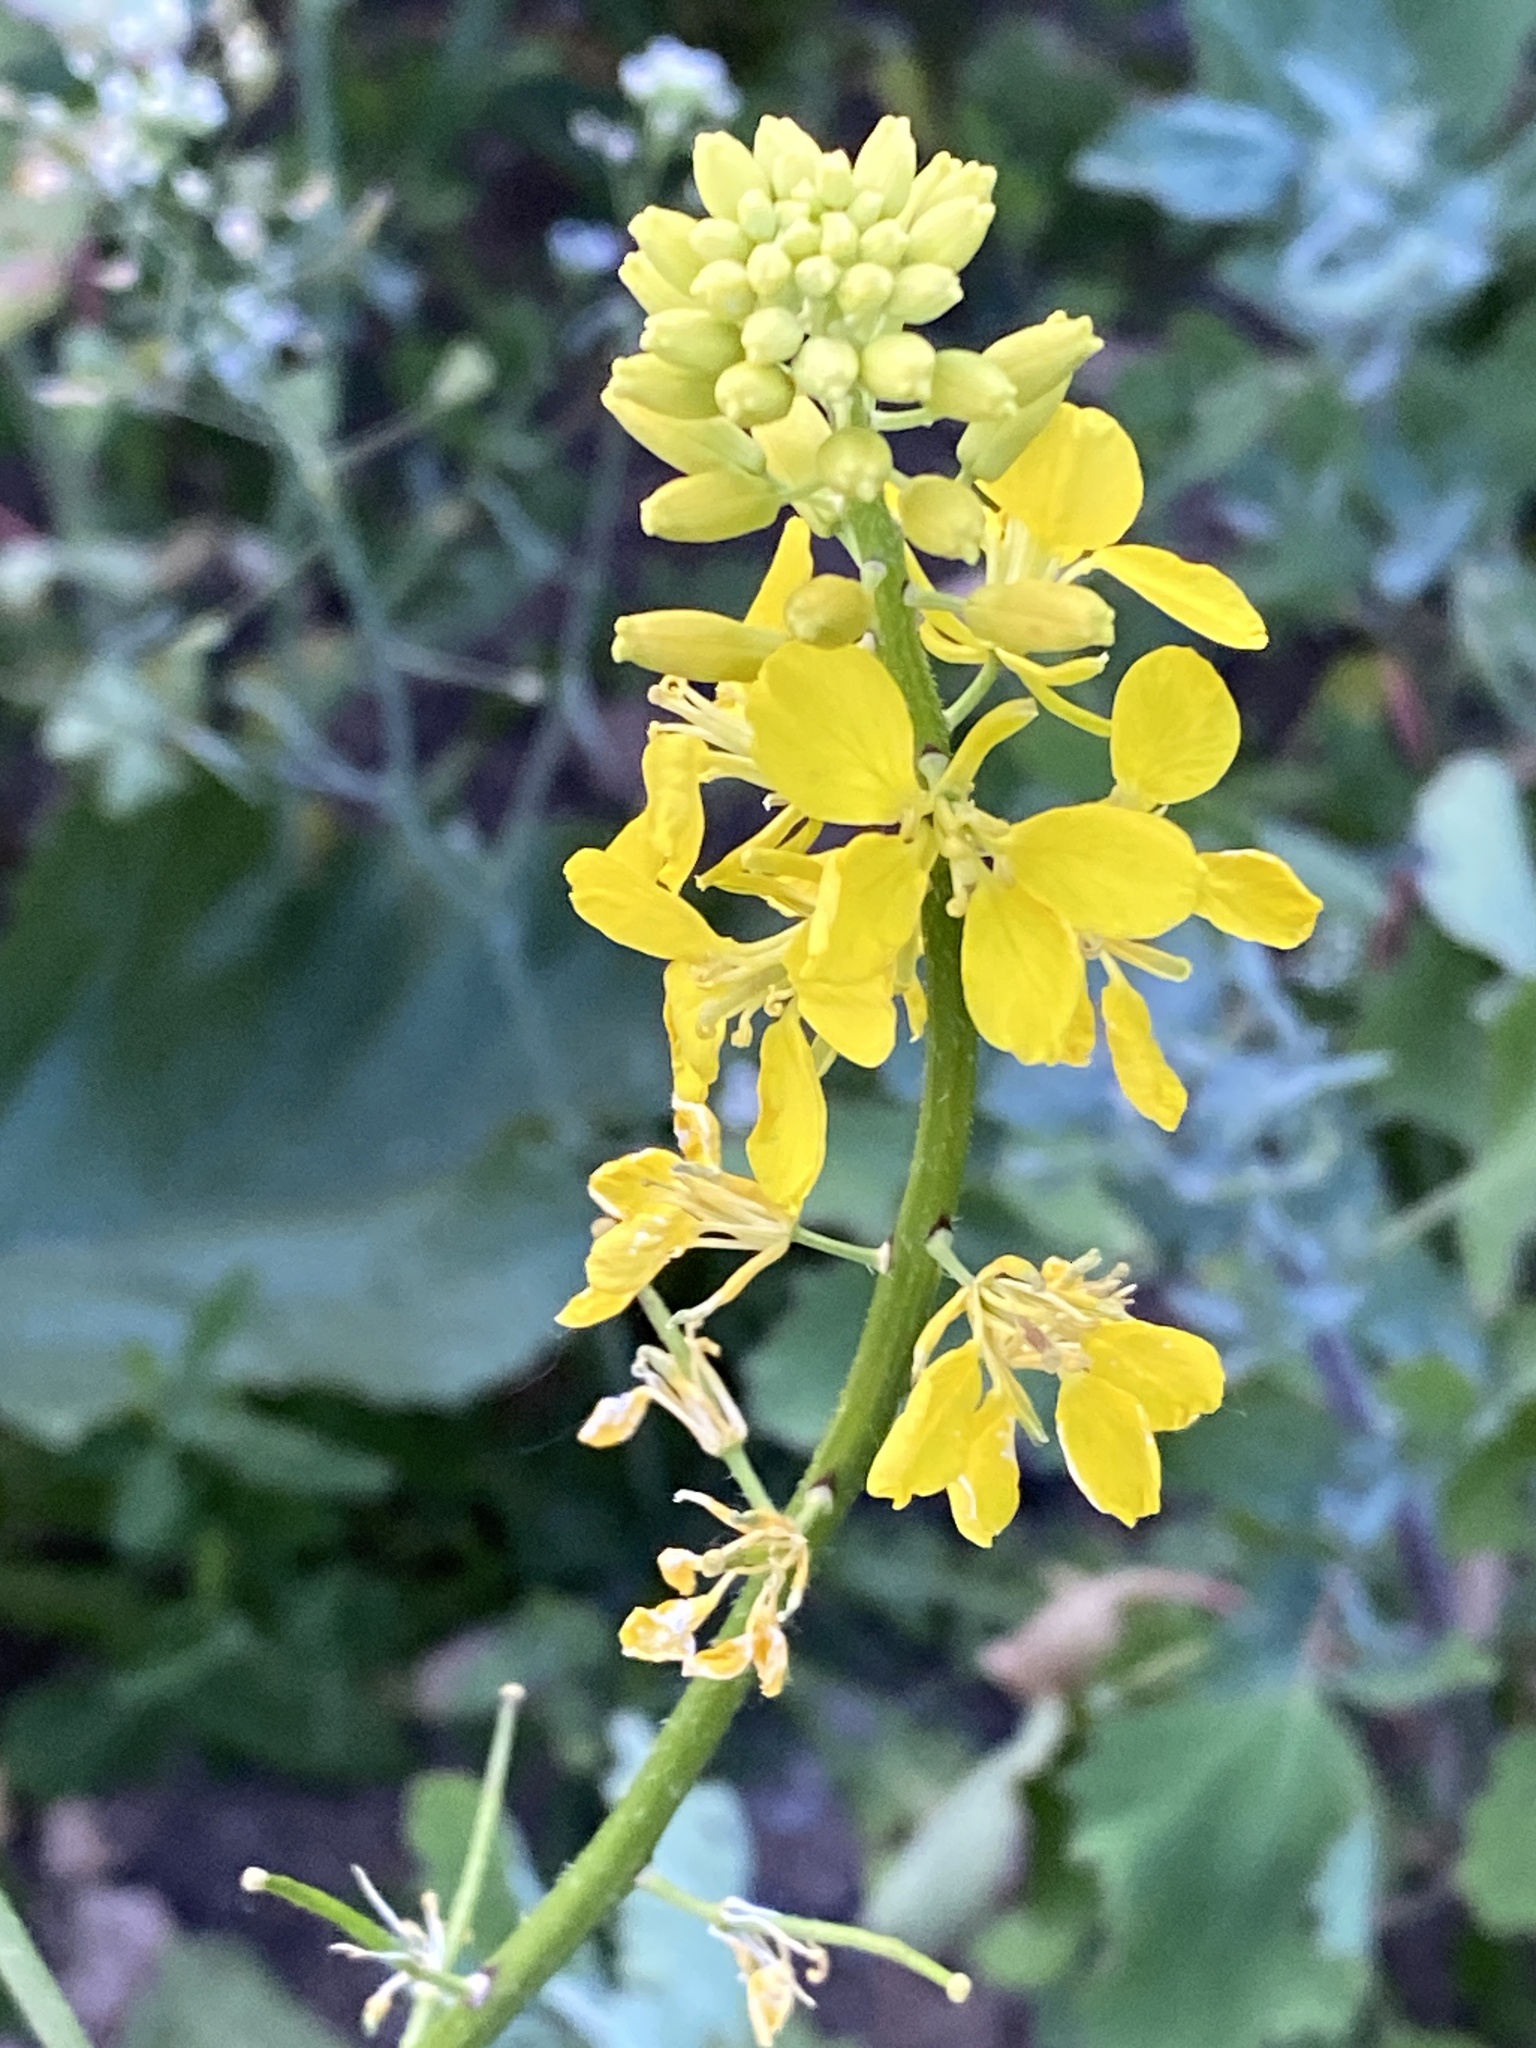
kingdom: Plantae
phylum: Tracheophyta
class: Magnoliopsida
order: Brassicales
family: Brassicaceae
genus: Sinapis
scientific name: Sinapis arvensis
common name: Charlock
